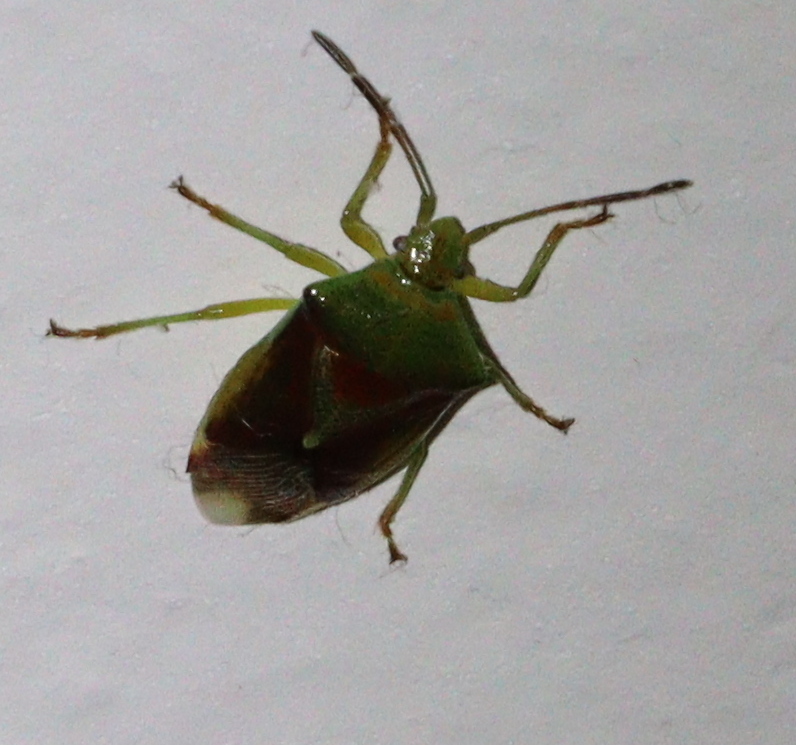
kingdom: Animalia
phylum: Arthropoda
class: Insecta
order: Hemiptera
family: Acanthosomatidae
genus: Elasmostethus
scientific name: Elasmostethus
